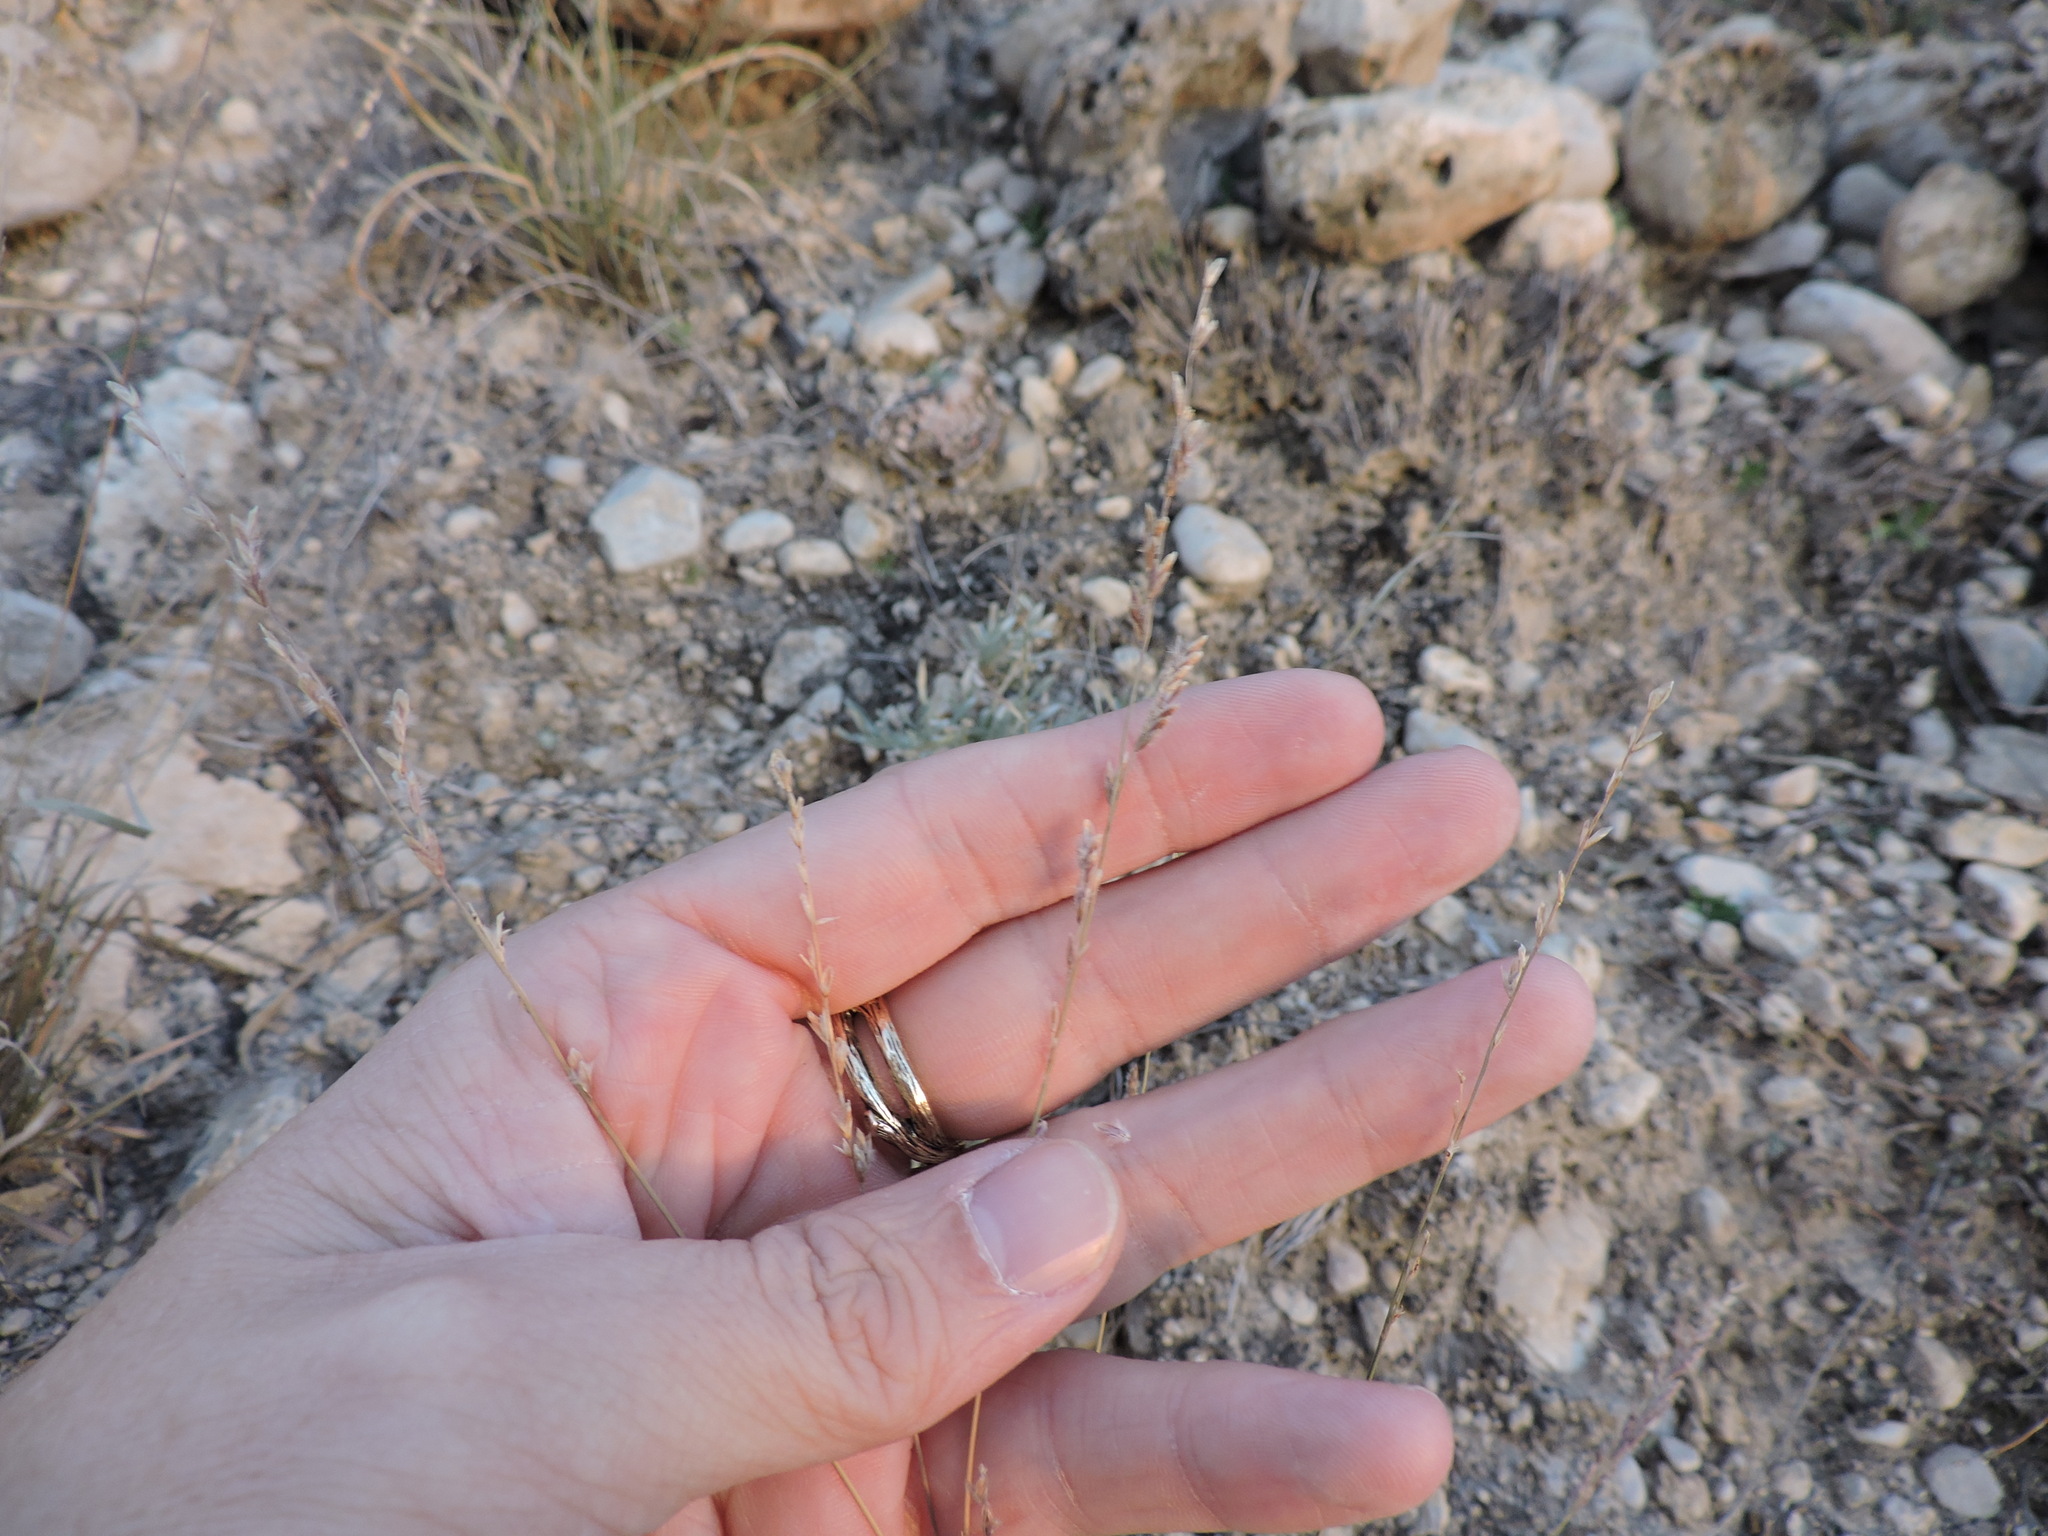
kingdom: Plantae
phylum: Tracheophyta
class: Liliopsida
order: Poales
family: Poaceae
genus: Tridentopsis
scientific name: Tridentopsis mutica
